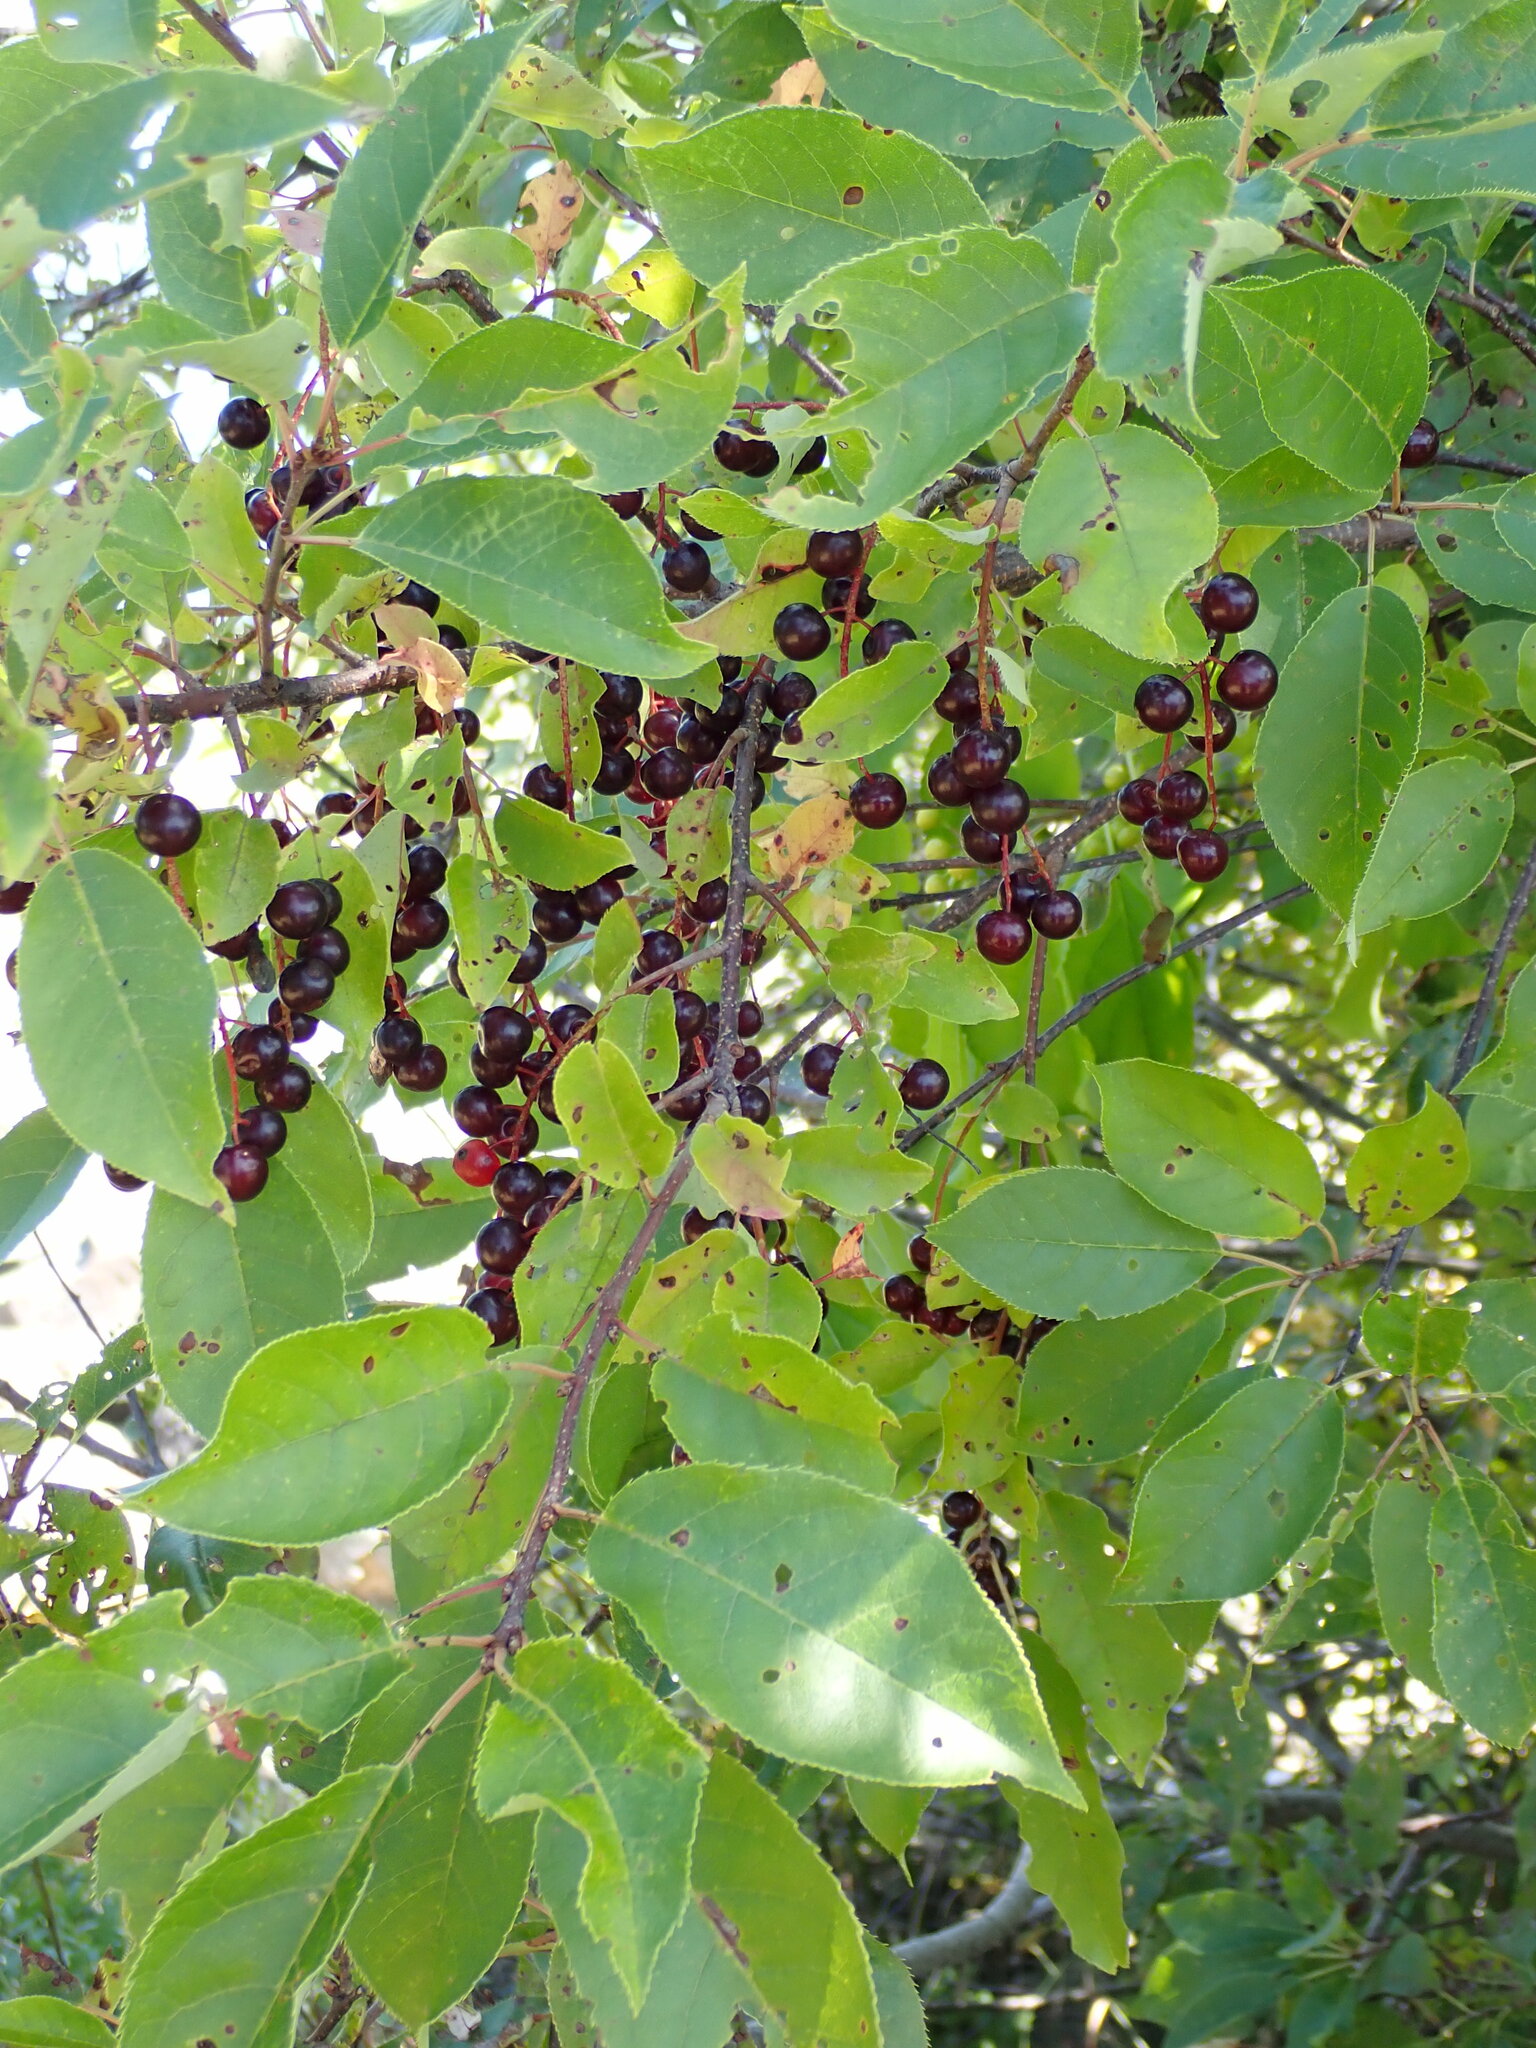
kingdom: Plantae
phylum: Tracheophyta
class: Magnoliopsida
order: Rosales
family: Rosaceae
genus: Prunus
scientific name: Prunus virginiana
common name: Chokecherry
